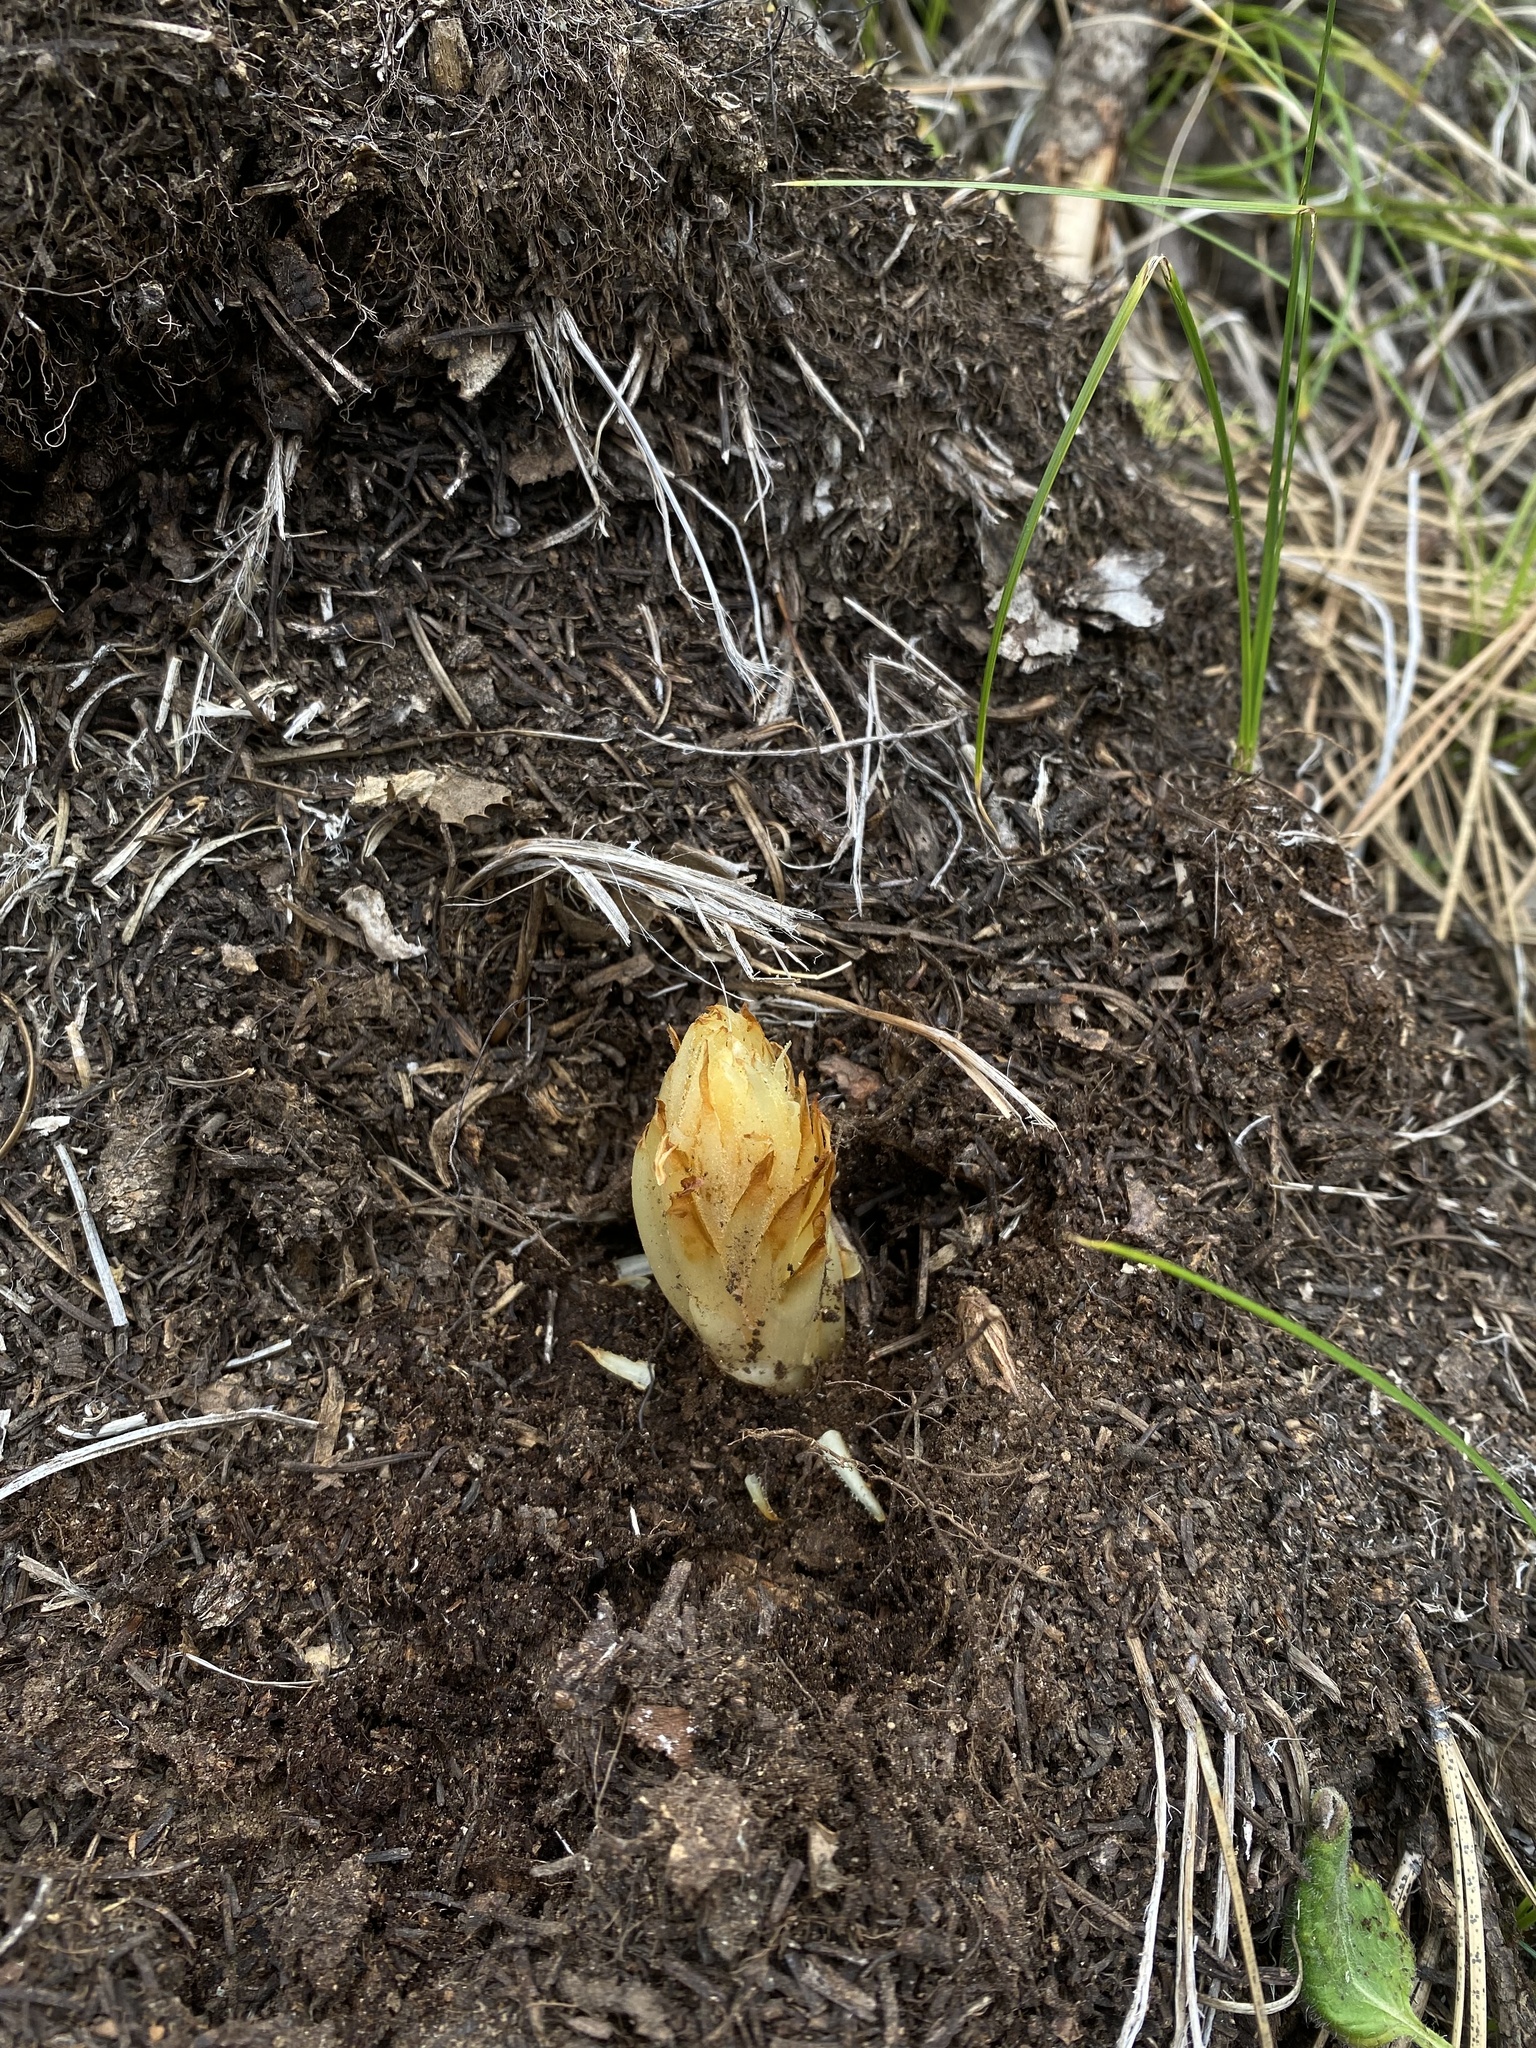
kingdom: Plantae
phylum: Tracheophyta
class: Magnoliopsida
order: Ericales
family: Ericaceae
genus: Pterospora
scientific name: Pterospora andromedea
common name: Giant bird's-nest
